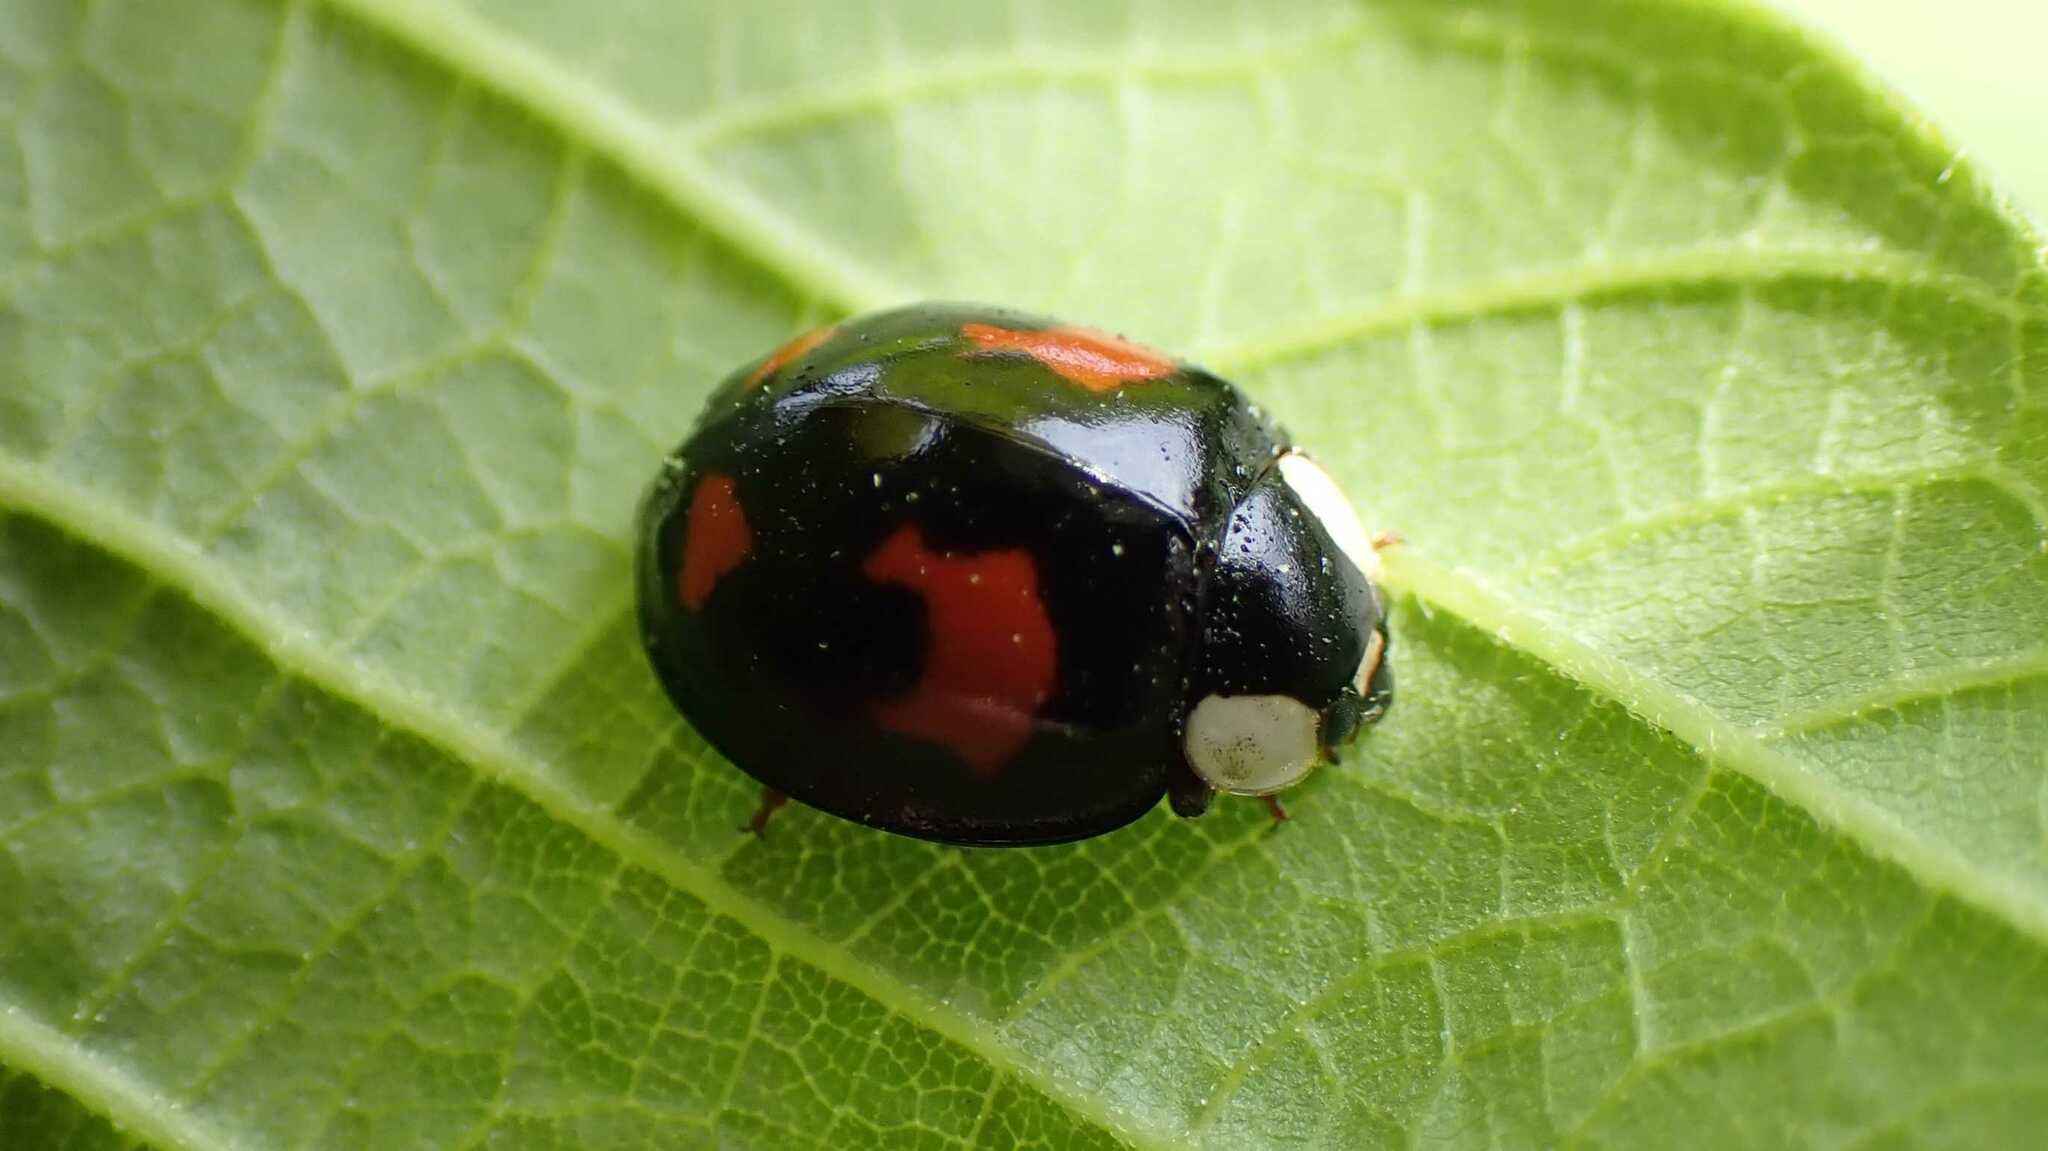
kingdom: Animalia
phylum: Arthropoda
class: Insecta
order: Coleoptera
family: Coccinellidae
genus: Harmonia
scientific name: Harmonia axyridis
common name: Harlequin ladybird
